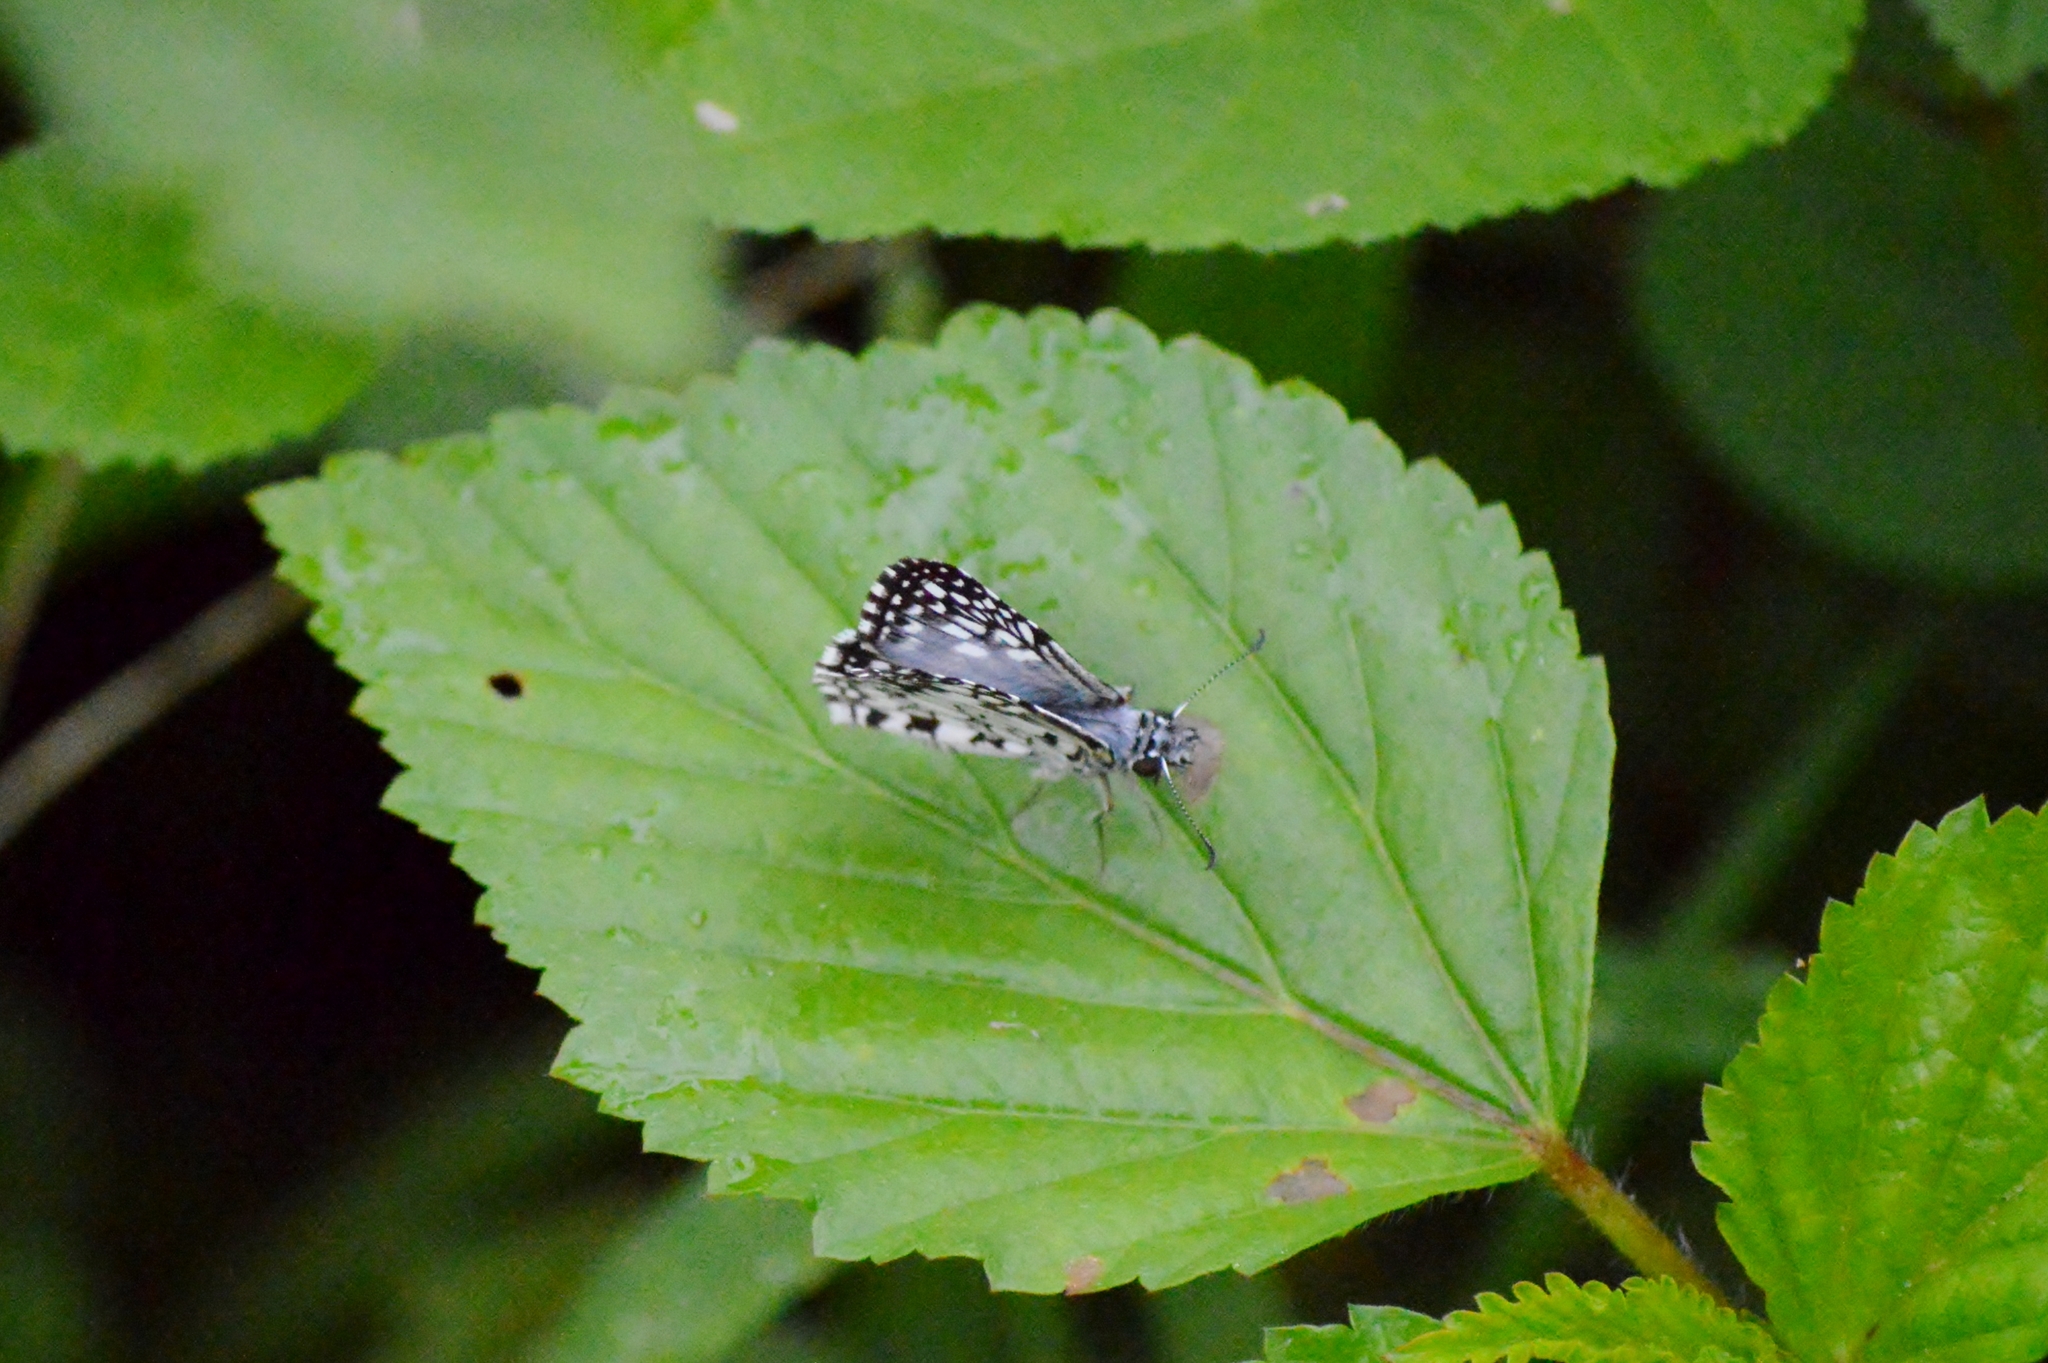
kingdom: Animalia
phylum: Arthropoda
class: Insecta
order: Lepidoptera
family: Hesperiidae
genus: Pyrgus
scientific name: Pyrgus oileus
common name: Tropical checkered-skipper
